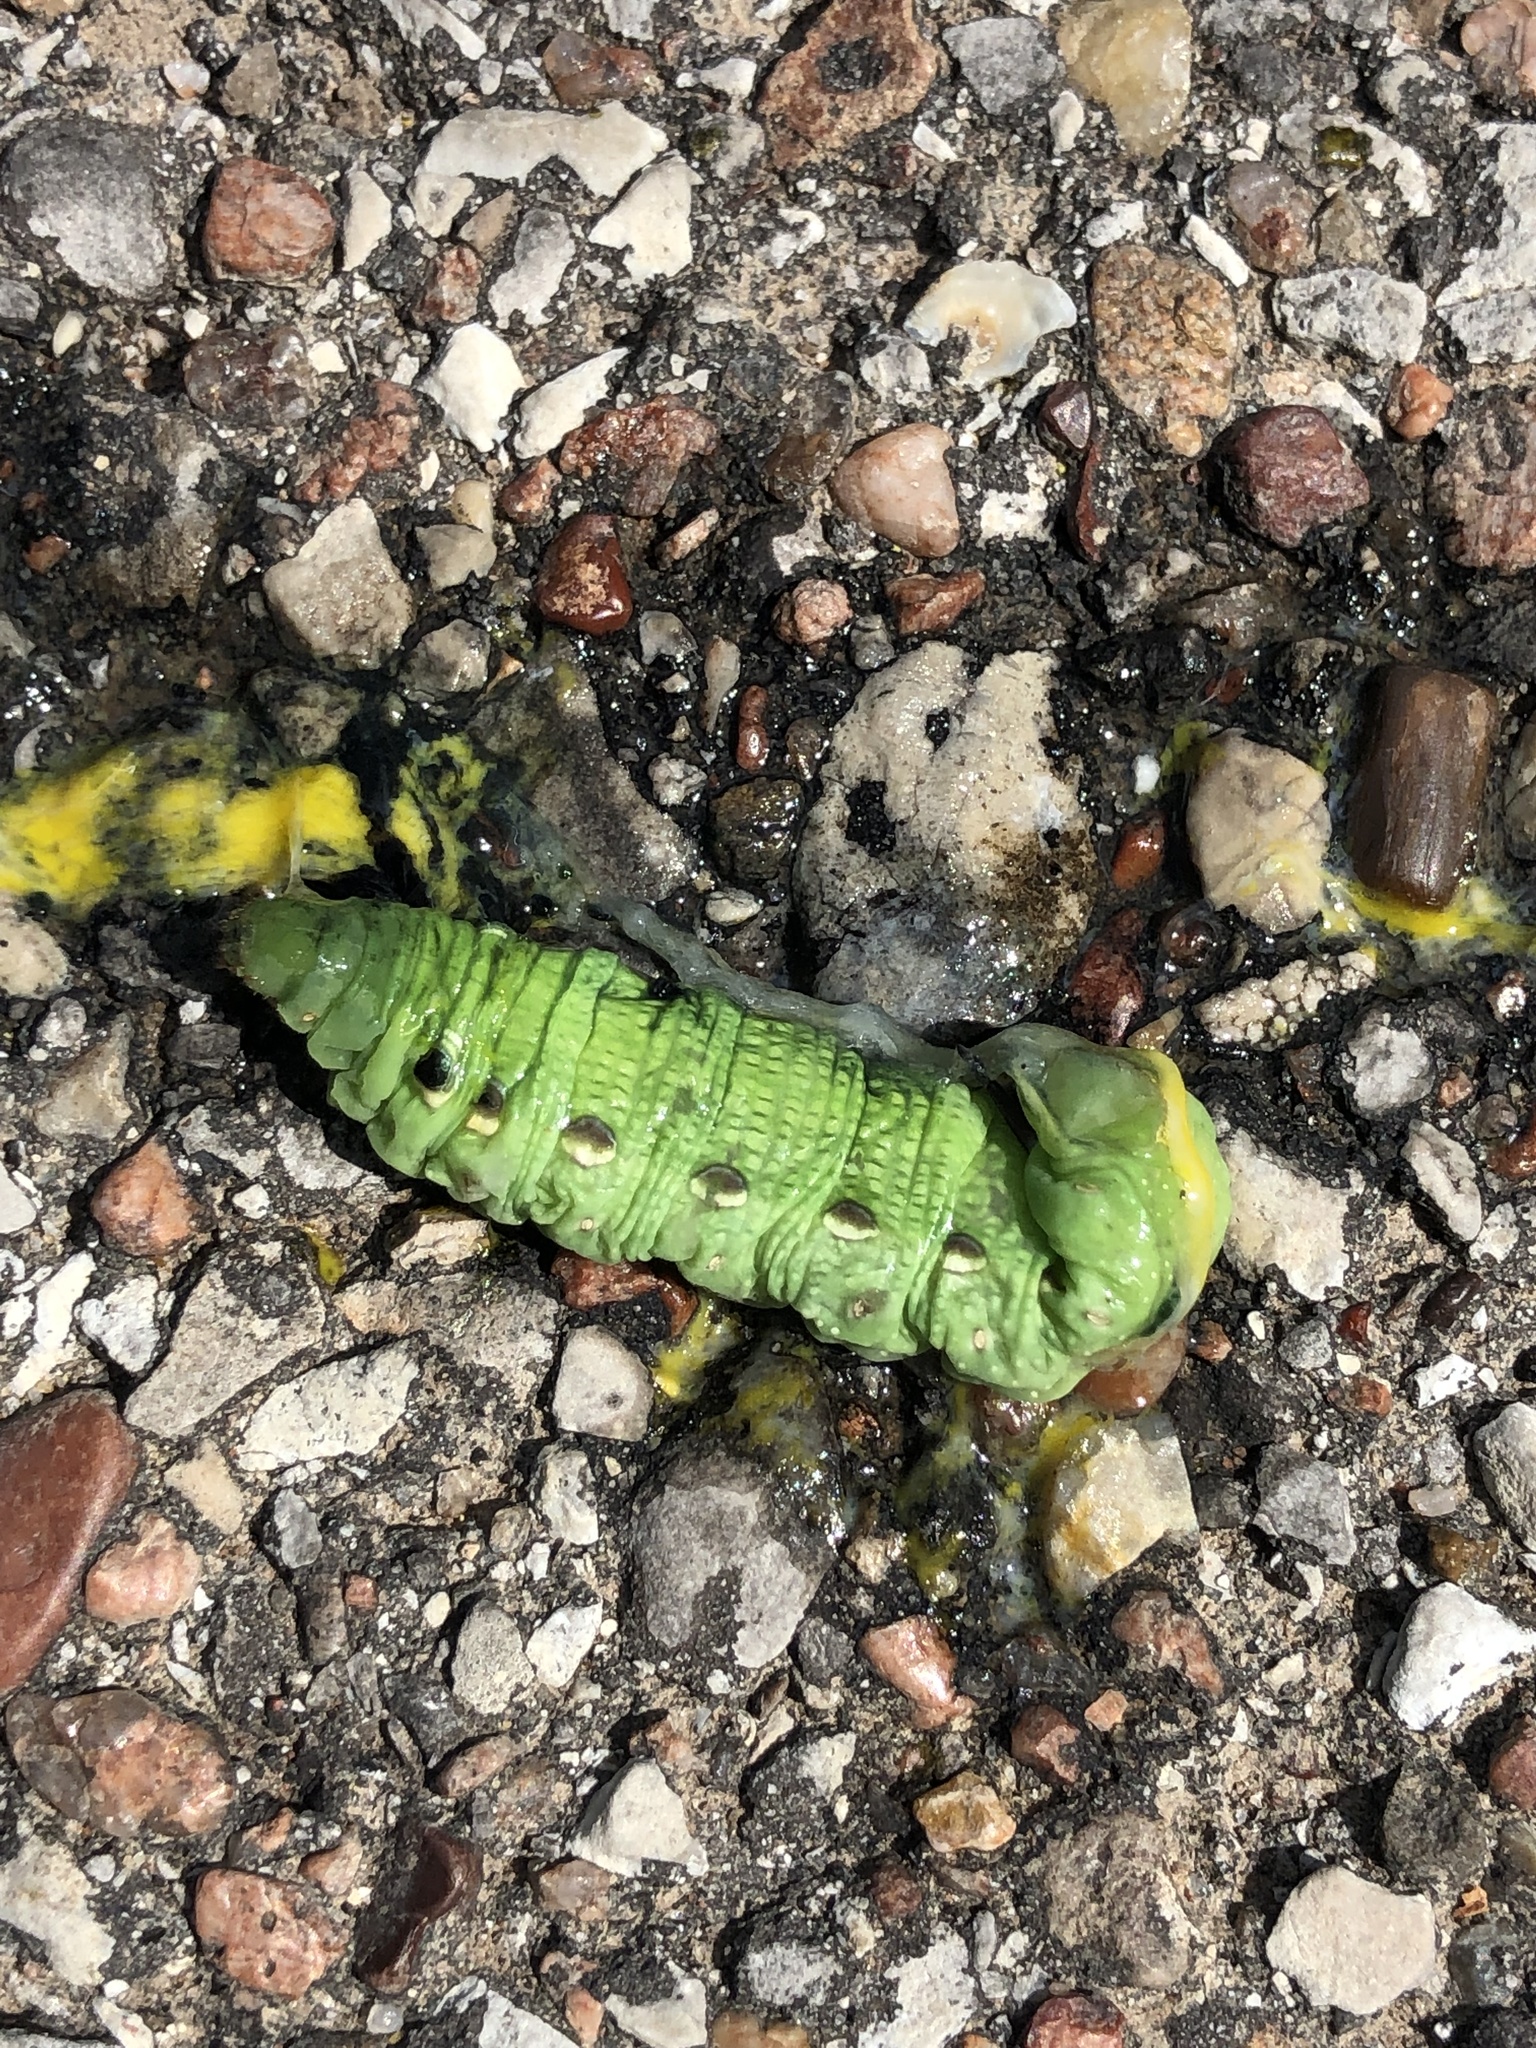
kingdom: Animalia
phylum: Arthropoda
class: Insecta
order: Lepidoptera
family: Sphingidae
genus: Xylophanes
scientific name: Xylophanes tersa
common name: Tersa sphinx
